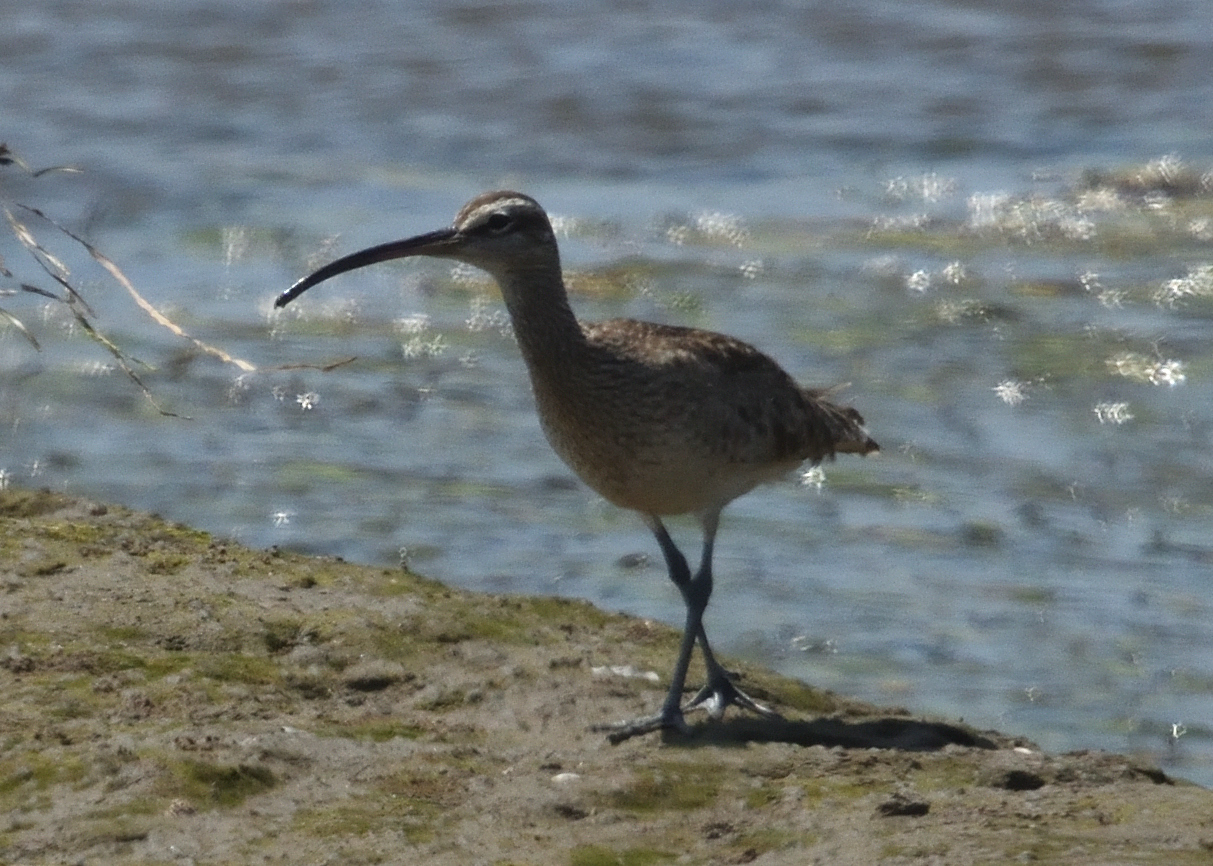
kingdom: Animalia
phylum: Chordata
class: Aves
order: Charadriiformes
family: Scolopacidae
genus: Numenius
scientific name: Numenius phaeopus
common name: Whimbrel
